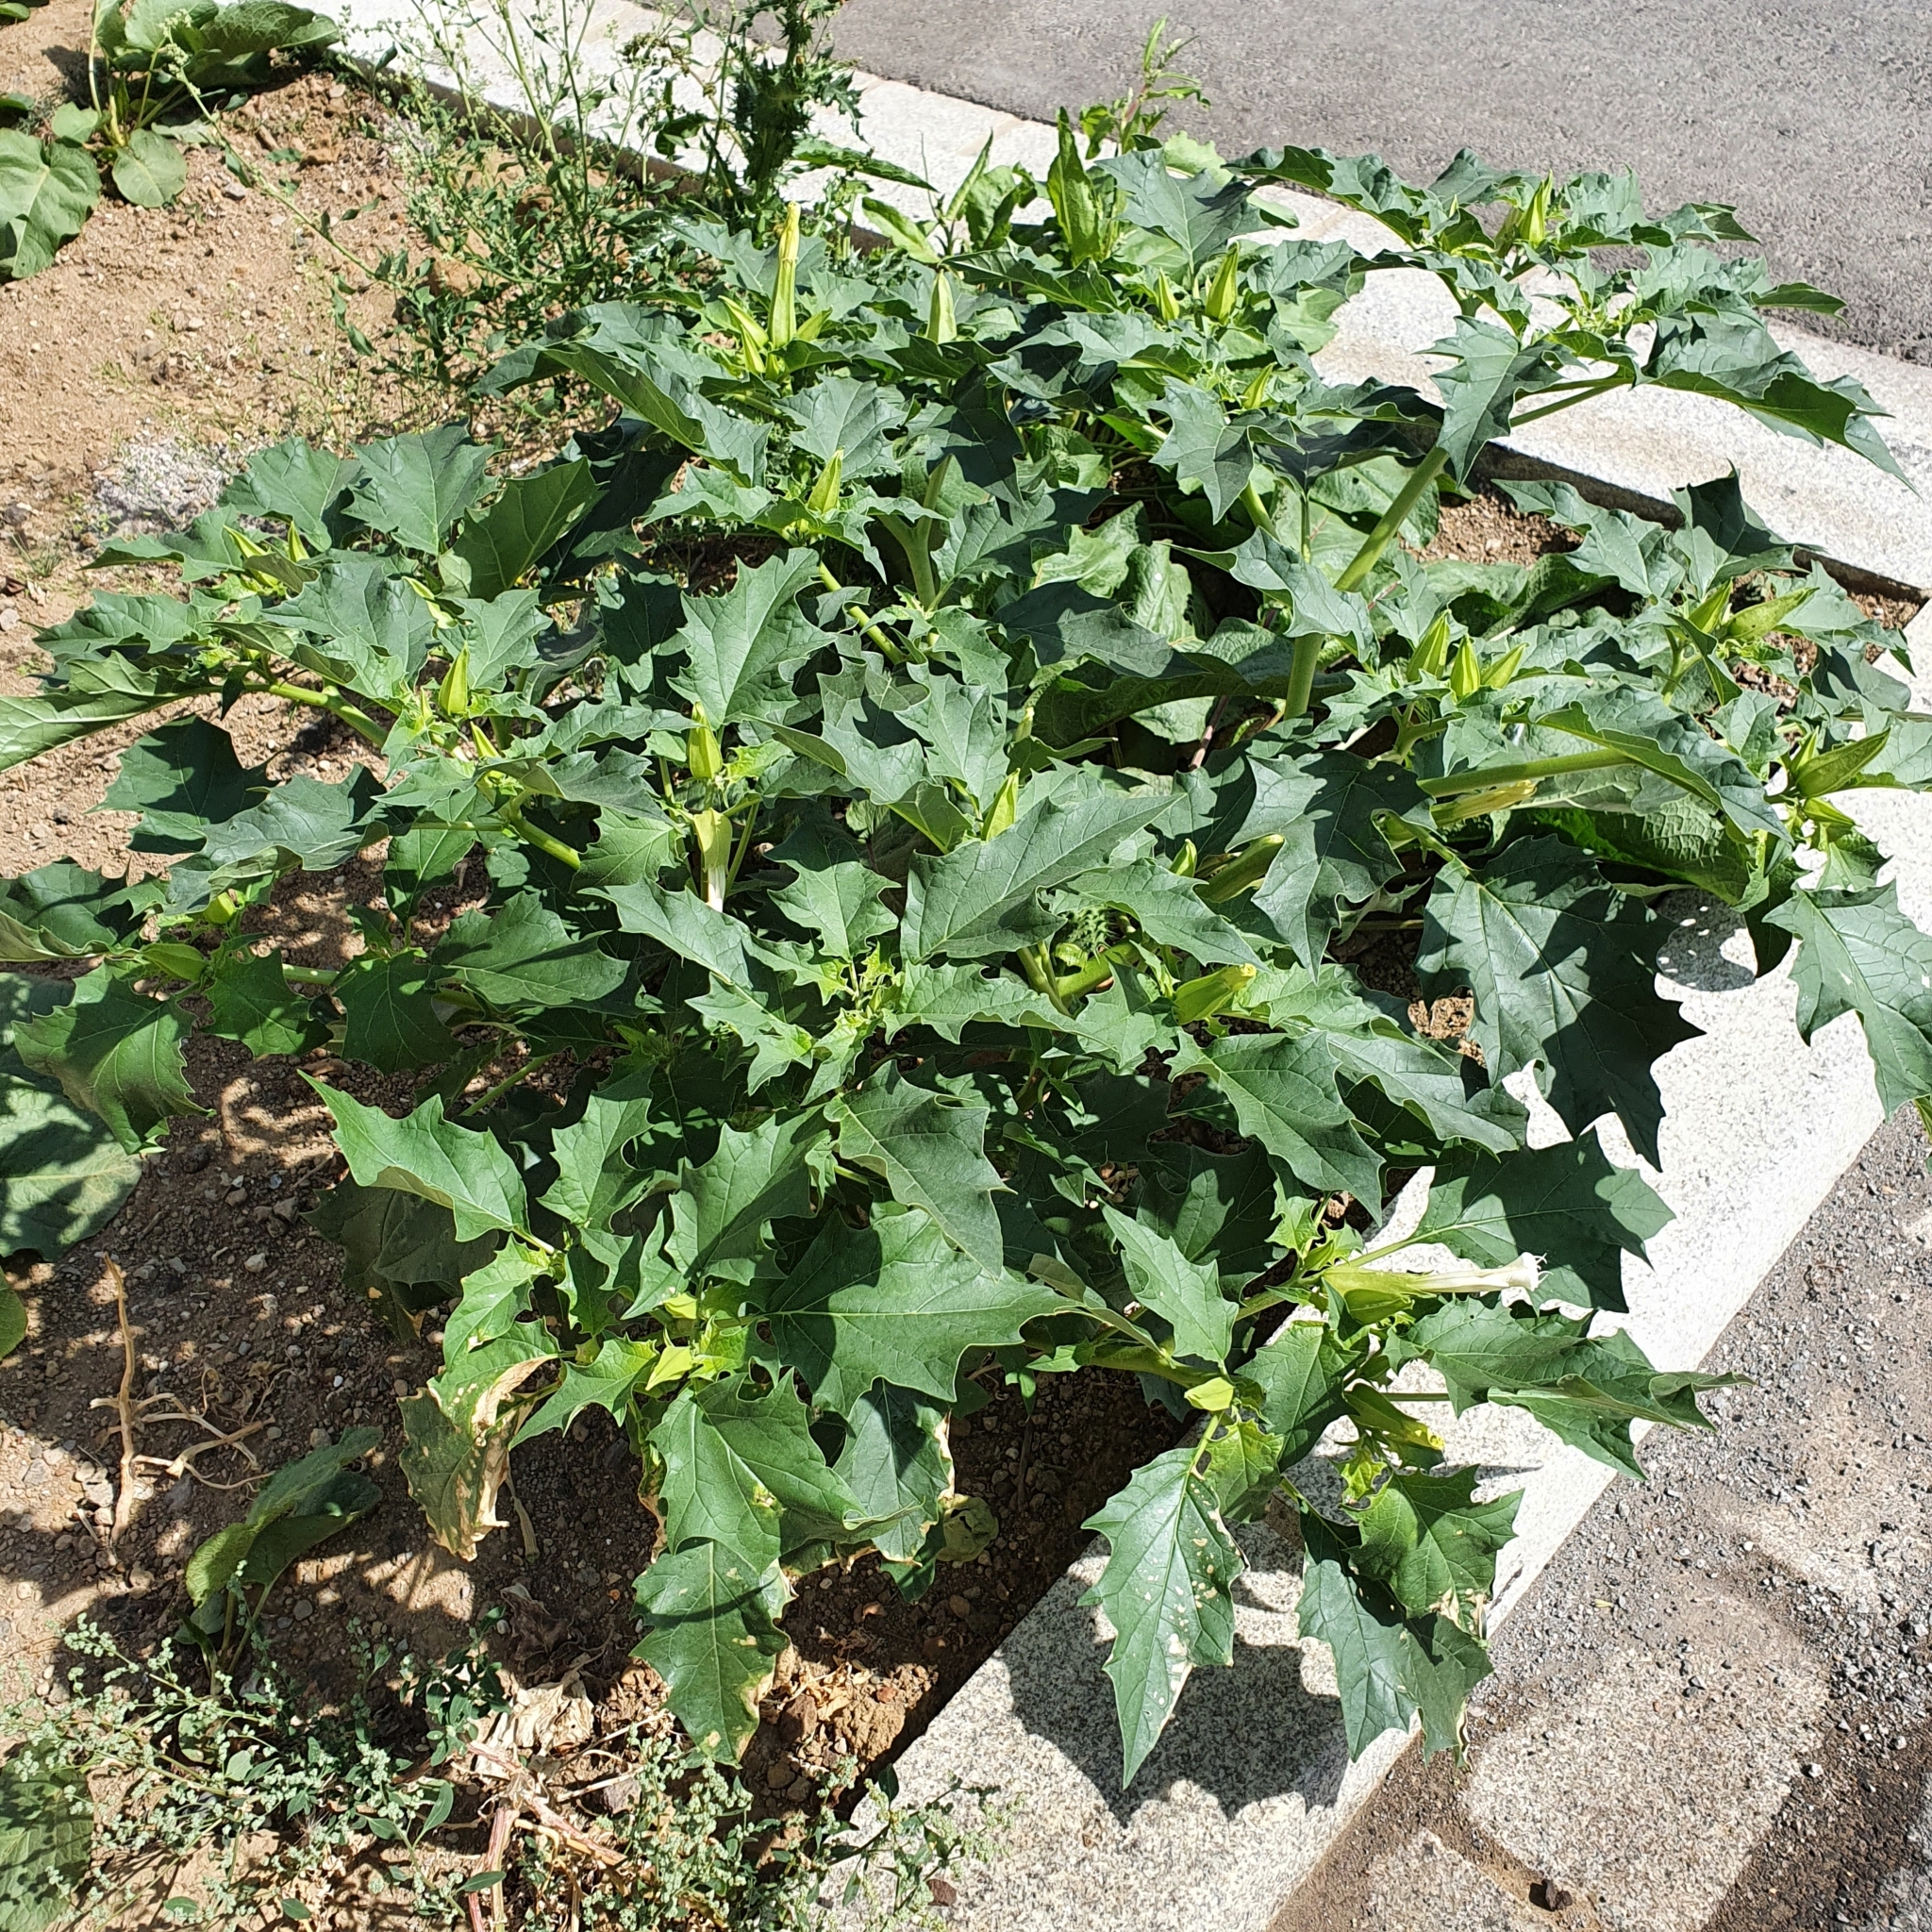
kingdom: Plantae
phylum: Tracheophyta
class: Magnoliopsida
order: Solanales
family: Solanaceae
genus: Datura
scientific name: Datura stramonium
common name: Thorn-apple
